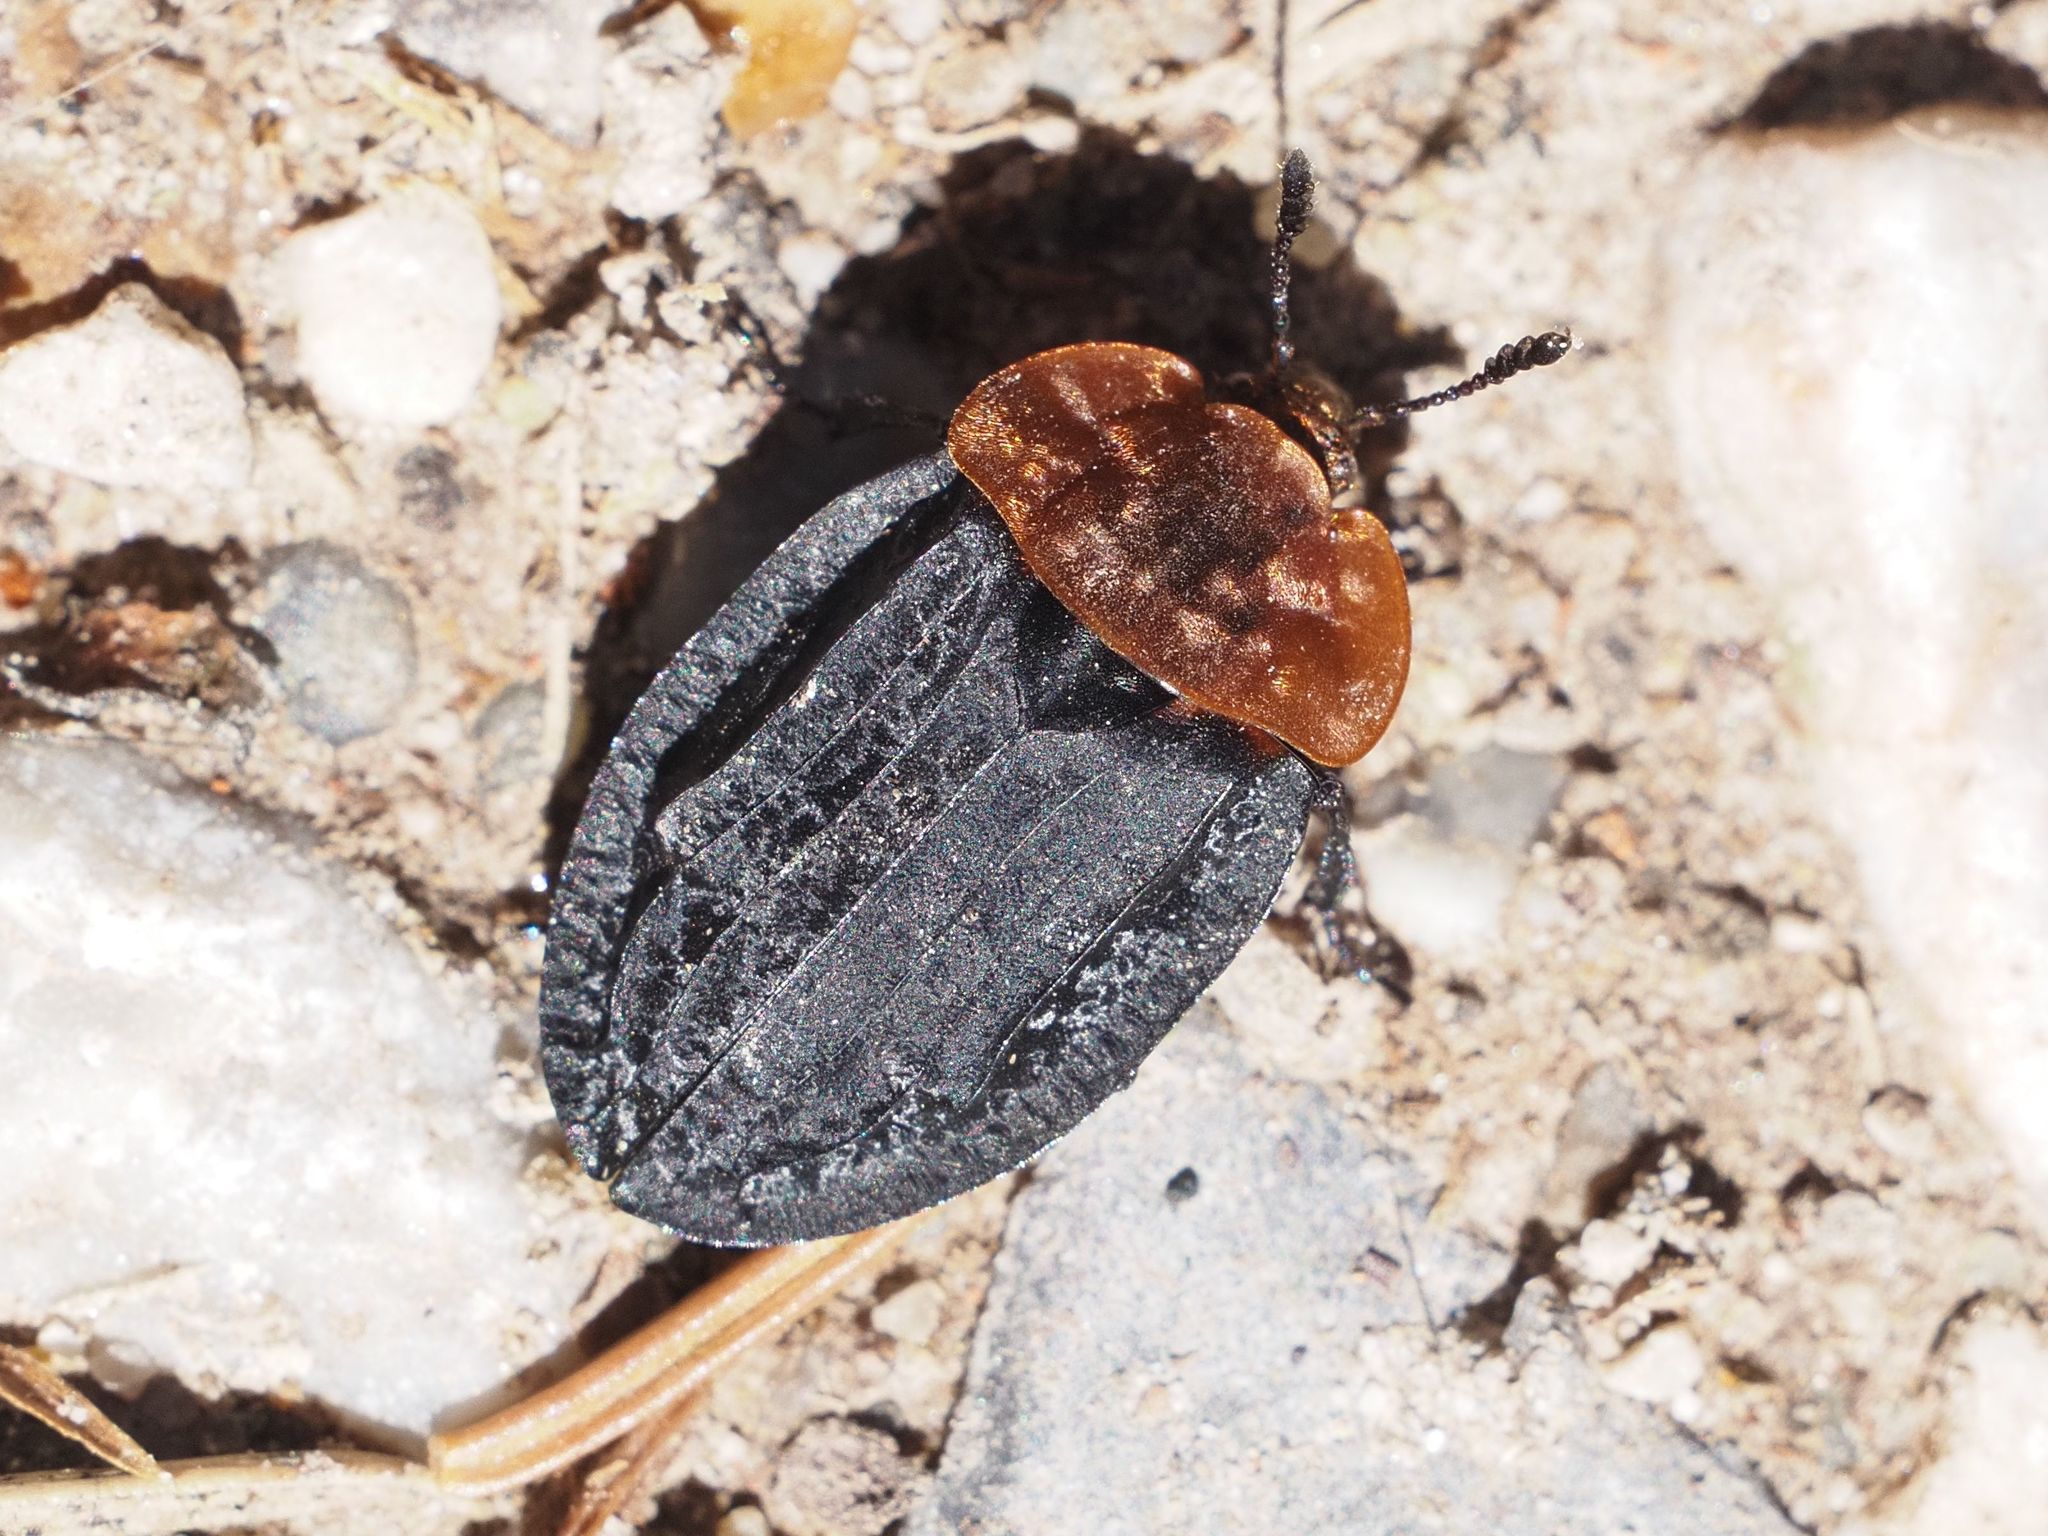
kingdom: Animalia
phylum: Arthropoda
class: Insecta
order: Coleoptera
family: Staphylinidae
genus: Oiceoptoma
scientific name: Oiceoptoma thoracicum
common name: Red-breasted carrion beetle
